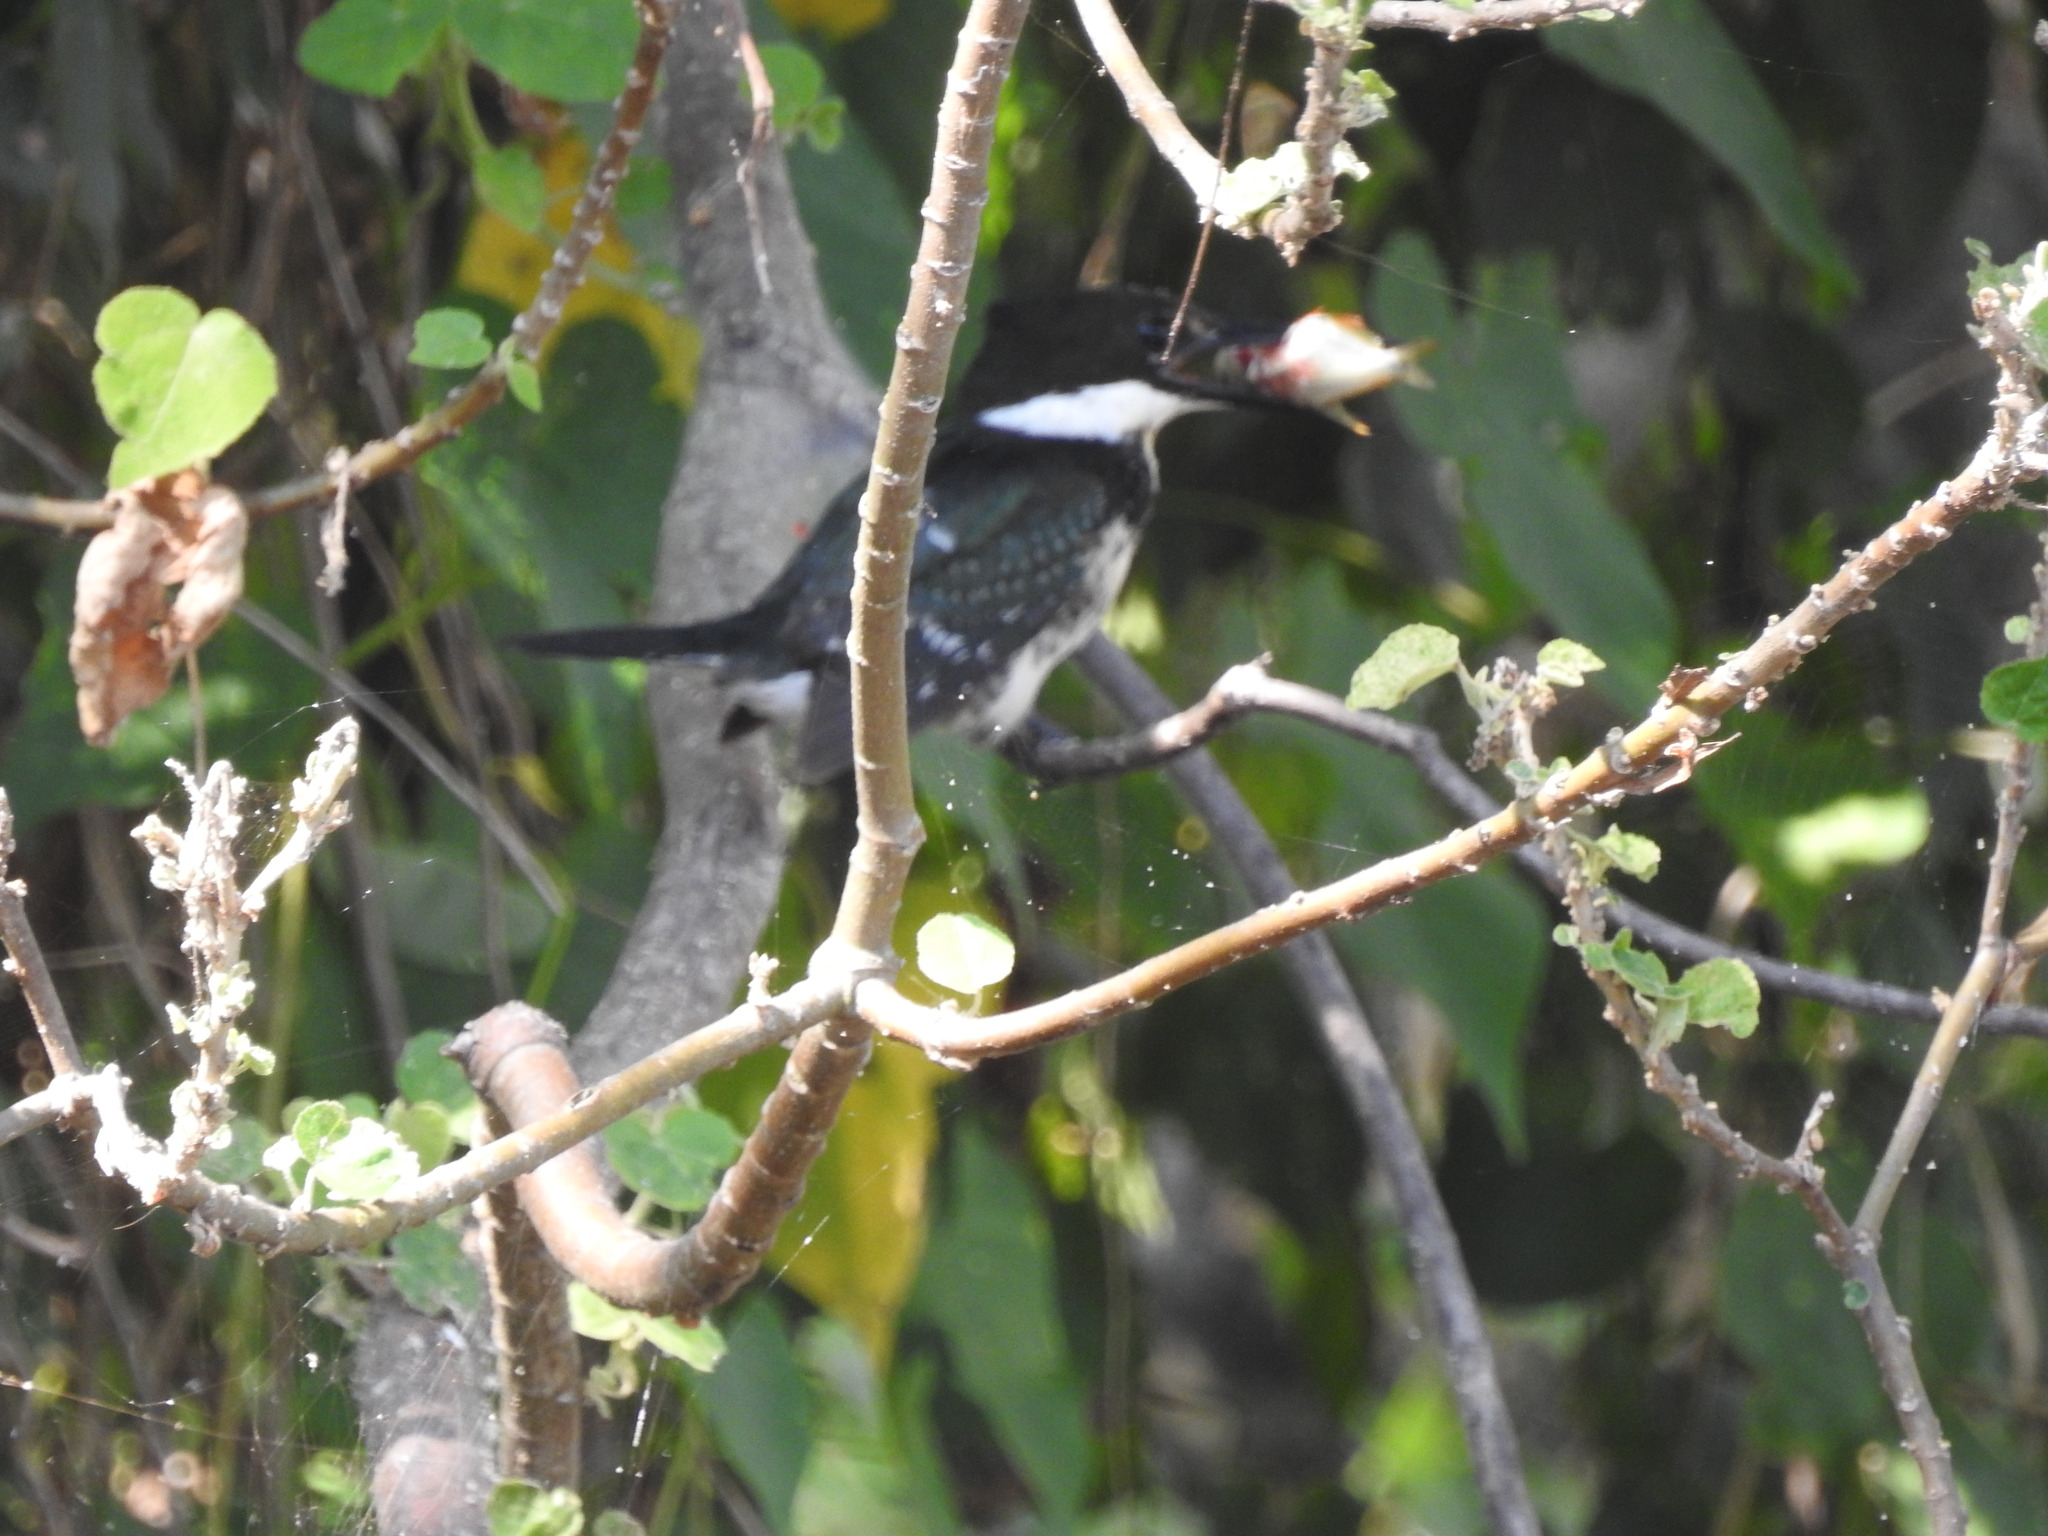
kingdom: Animalia
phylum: Chordata
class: Aves
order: Coraciiformes
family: Alcedinidae
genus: Chloroceryle
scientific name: Chloroceryle americana
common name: Green kingfisher
